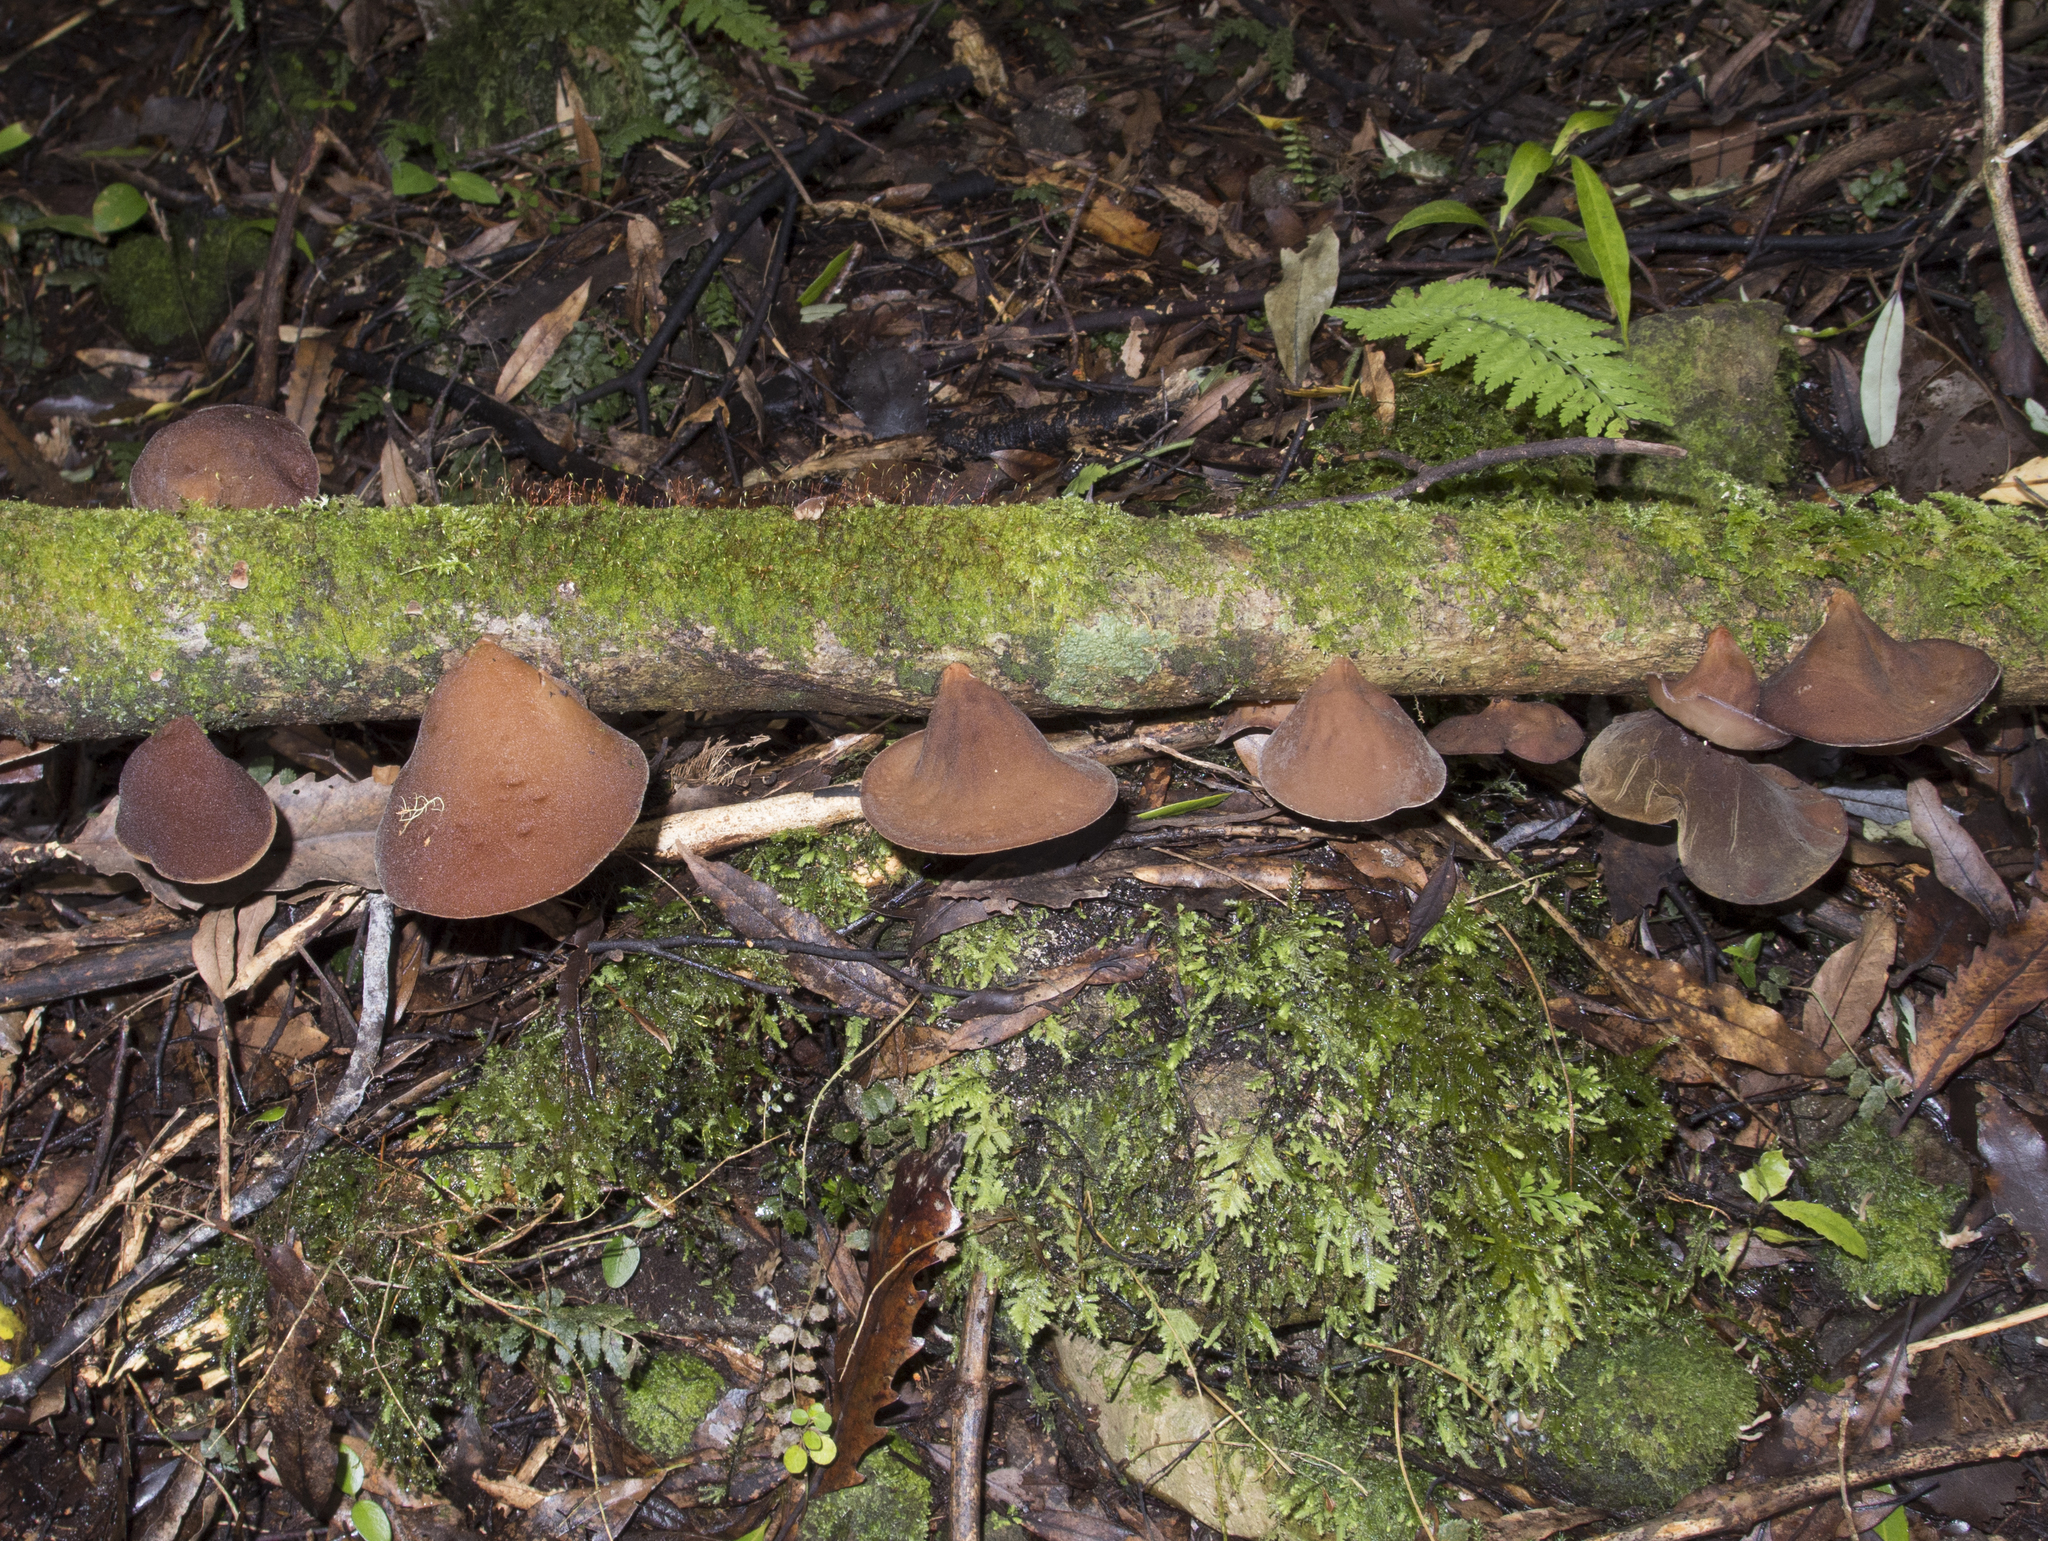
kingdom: Fungi
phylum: Basidiomycota
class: Agaricomycetes
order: Auriculariales
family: Auriculariaceae
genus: Auricularia
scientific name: Auricularia cornea
